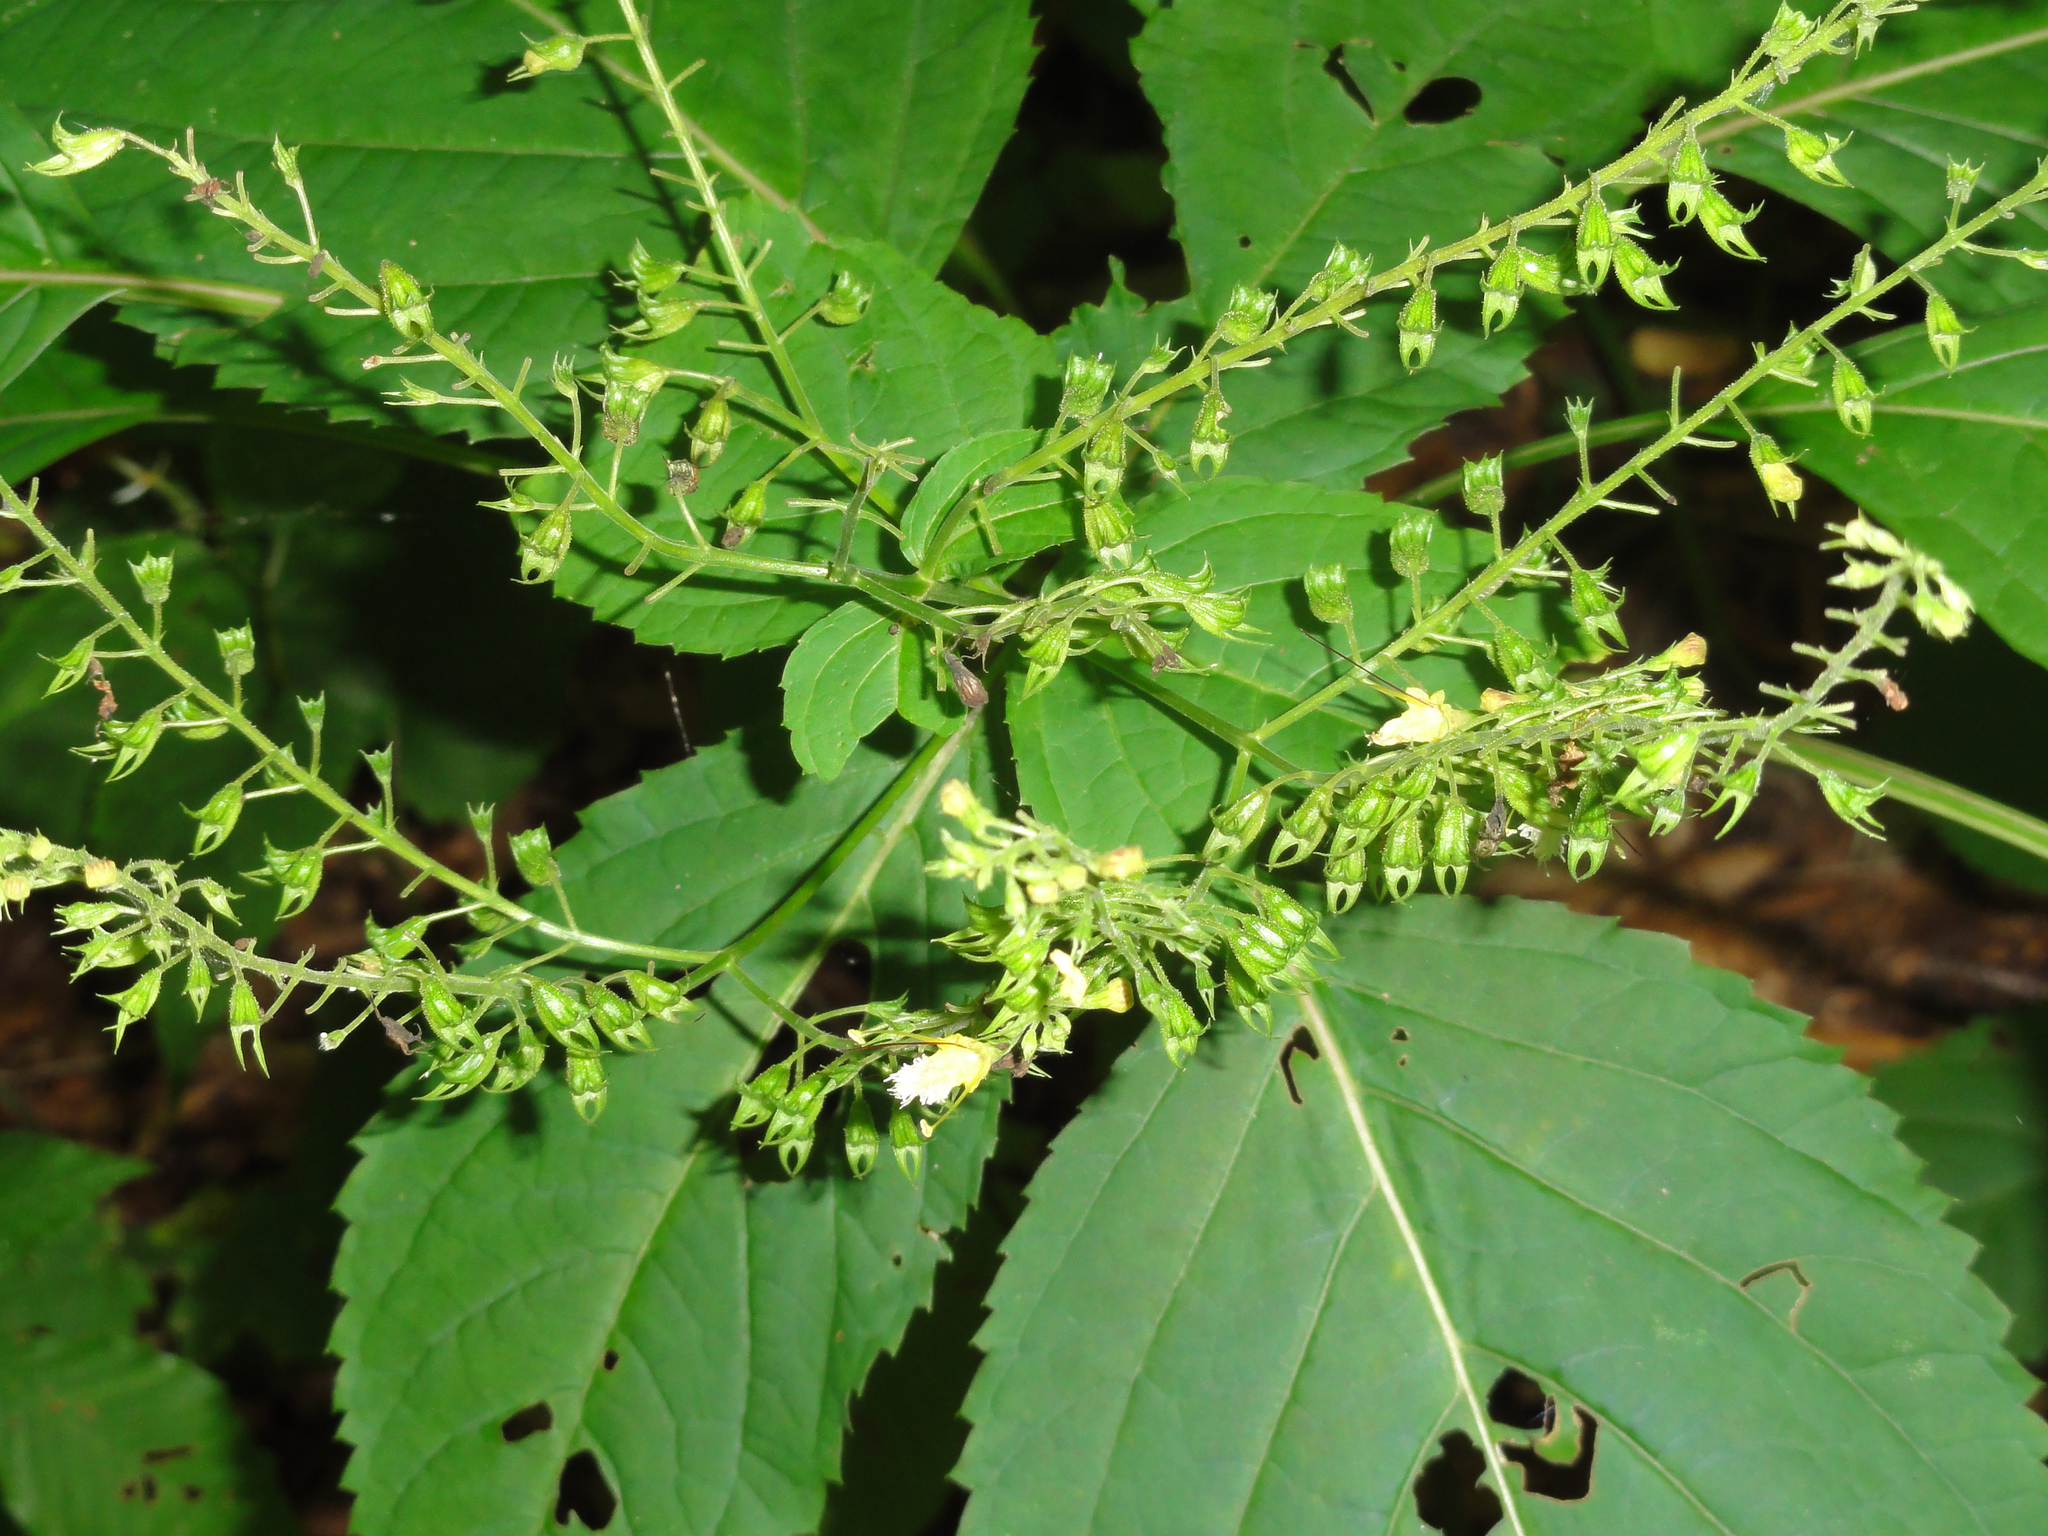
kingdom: Plantae
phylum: Tracheophyta
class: Magnoliopsida
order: Lamiales
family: Lamiaceae
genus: Collinsonia
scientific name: Collinsonia canadensis
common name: Northern horsebalm
